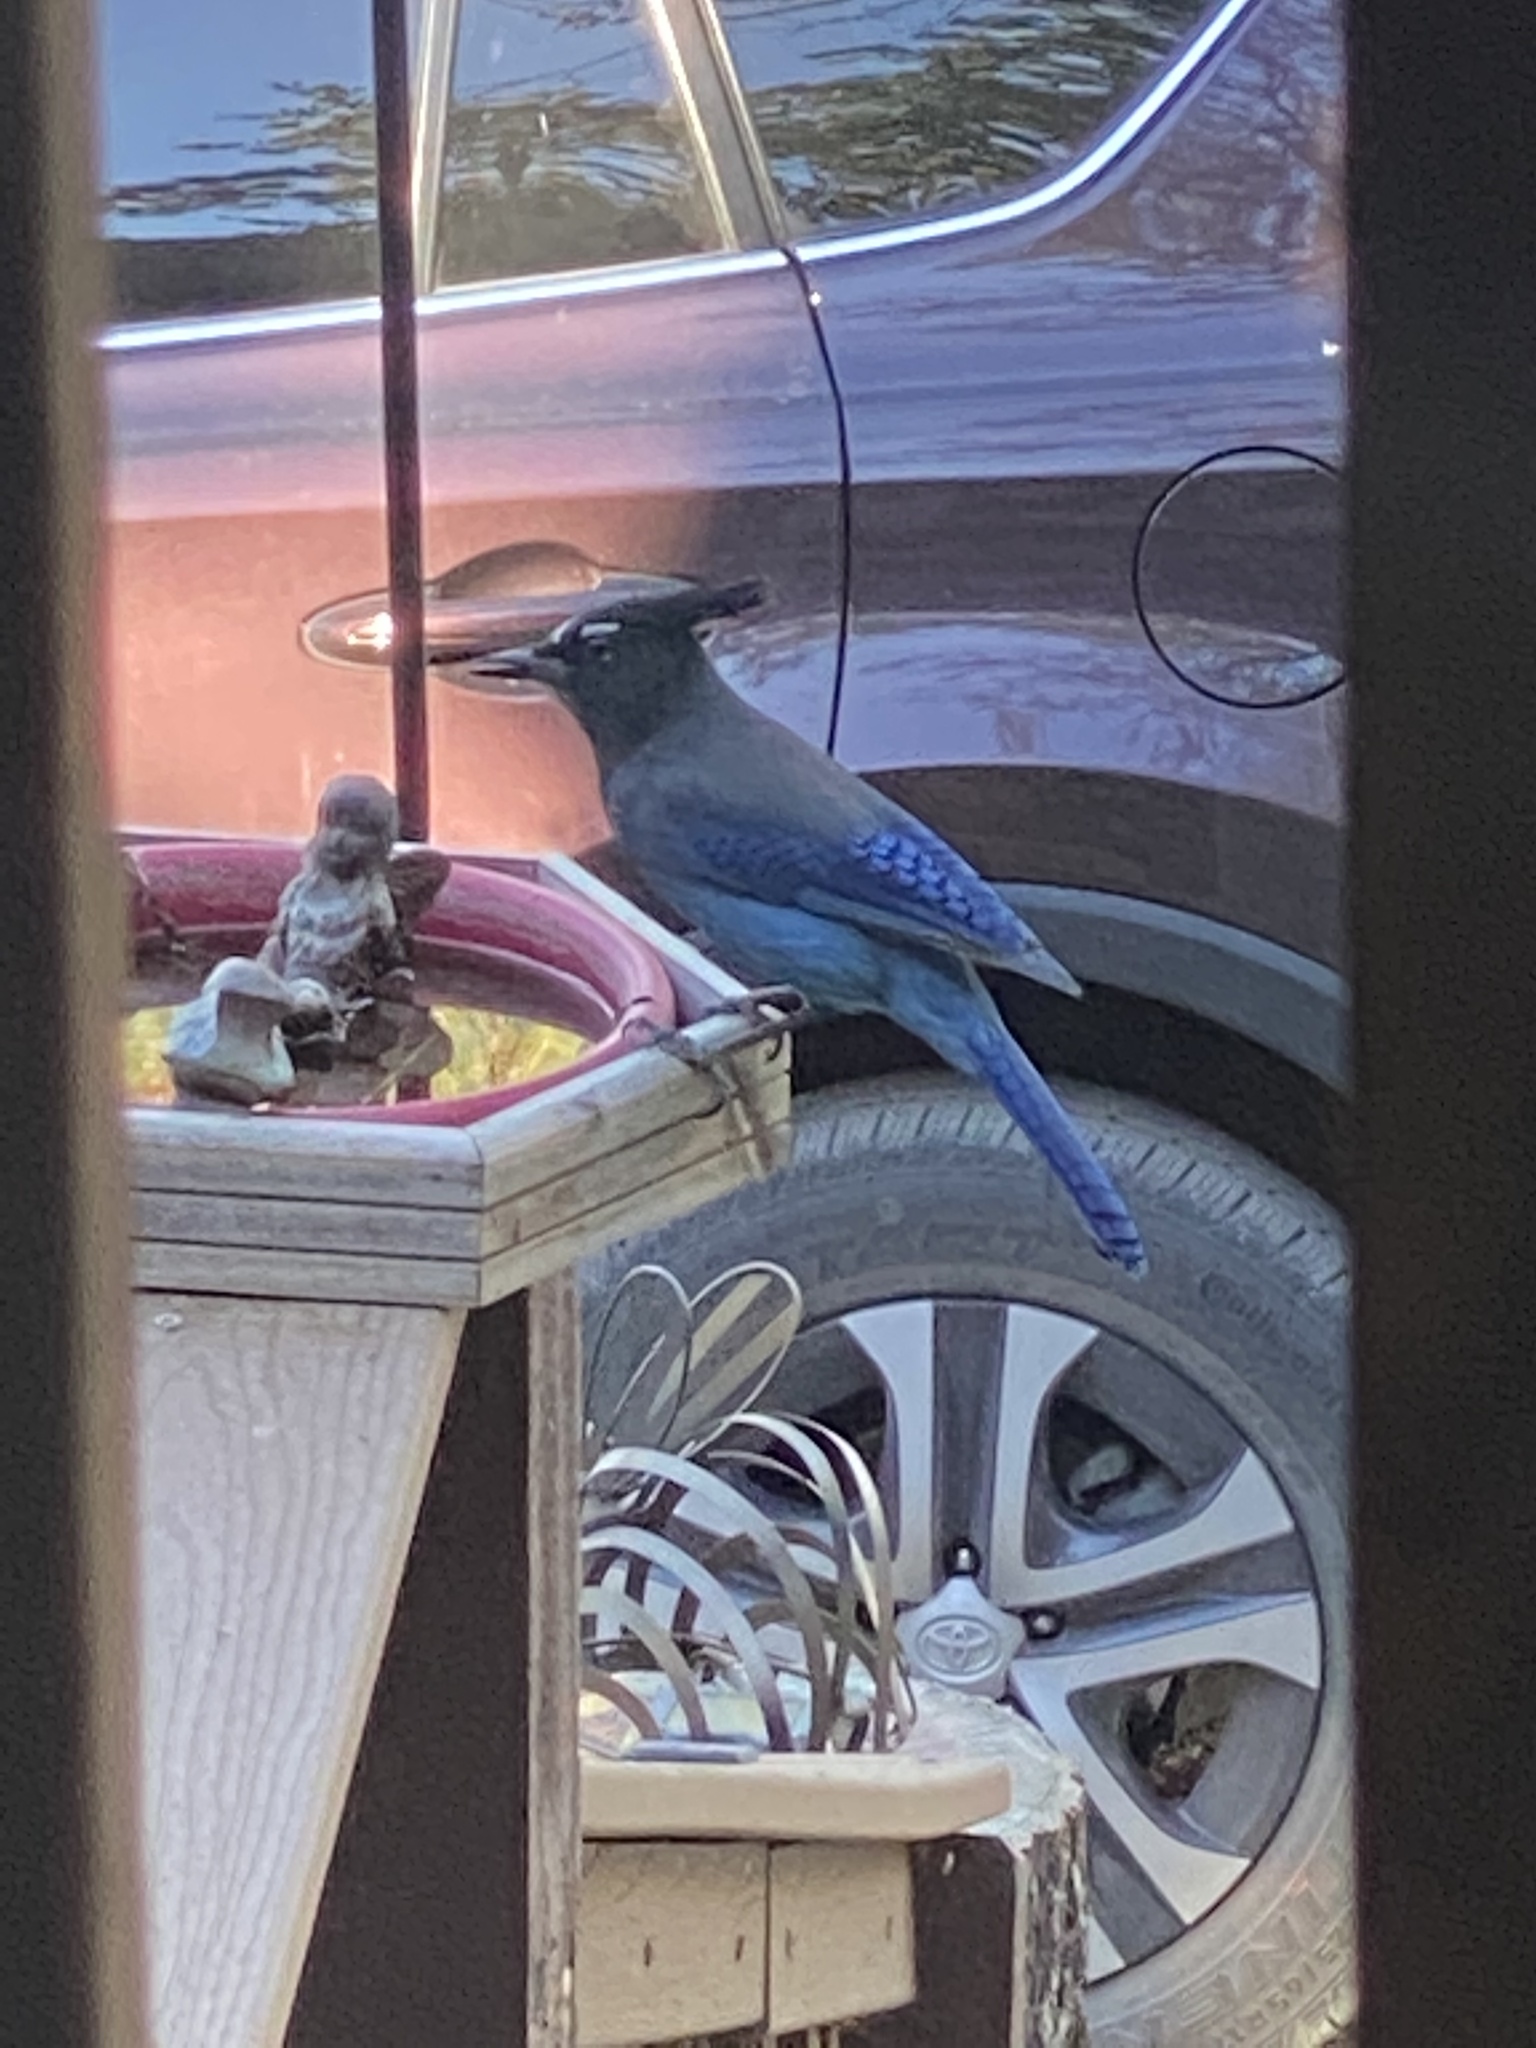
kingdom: Animalia
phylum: Chordata
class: Aves
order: Passeriformes
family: Corvidae
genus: Cyanocitta
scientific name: Cyanocitta stelleri
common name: Steller's jay
